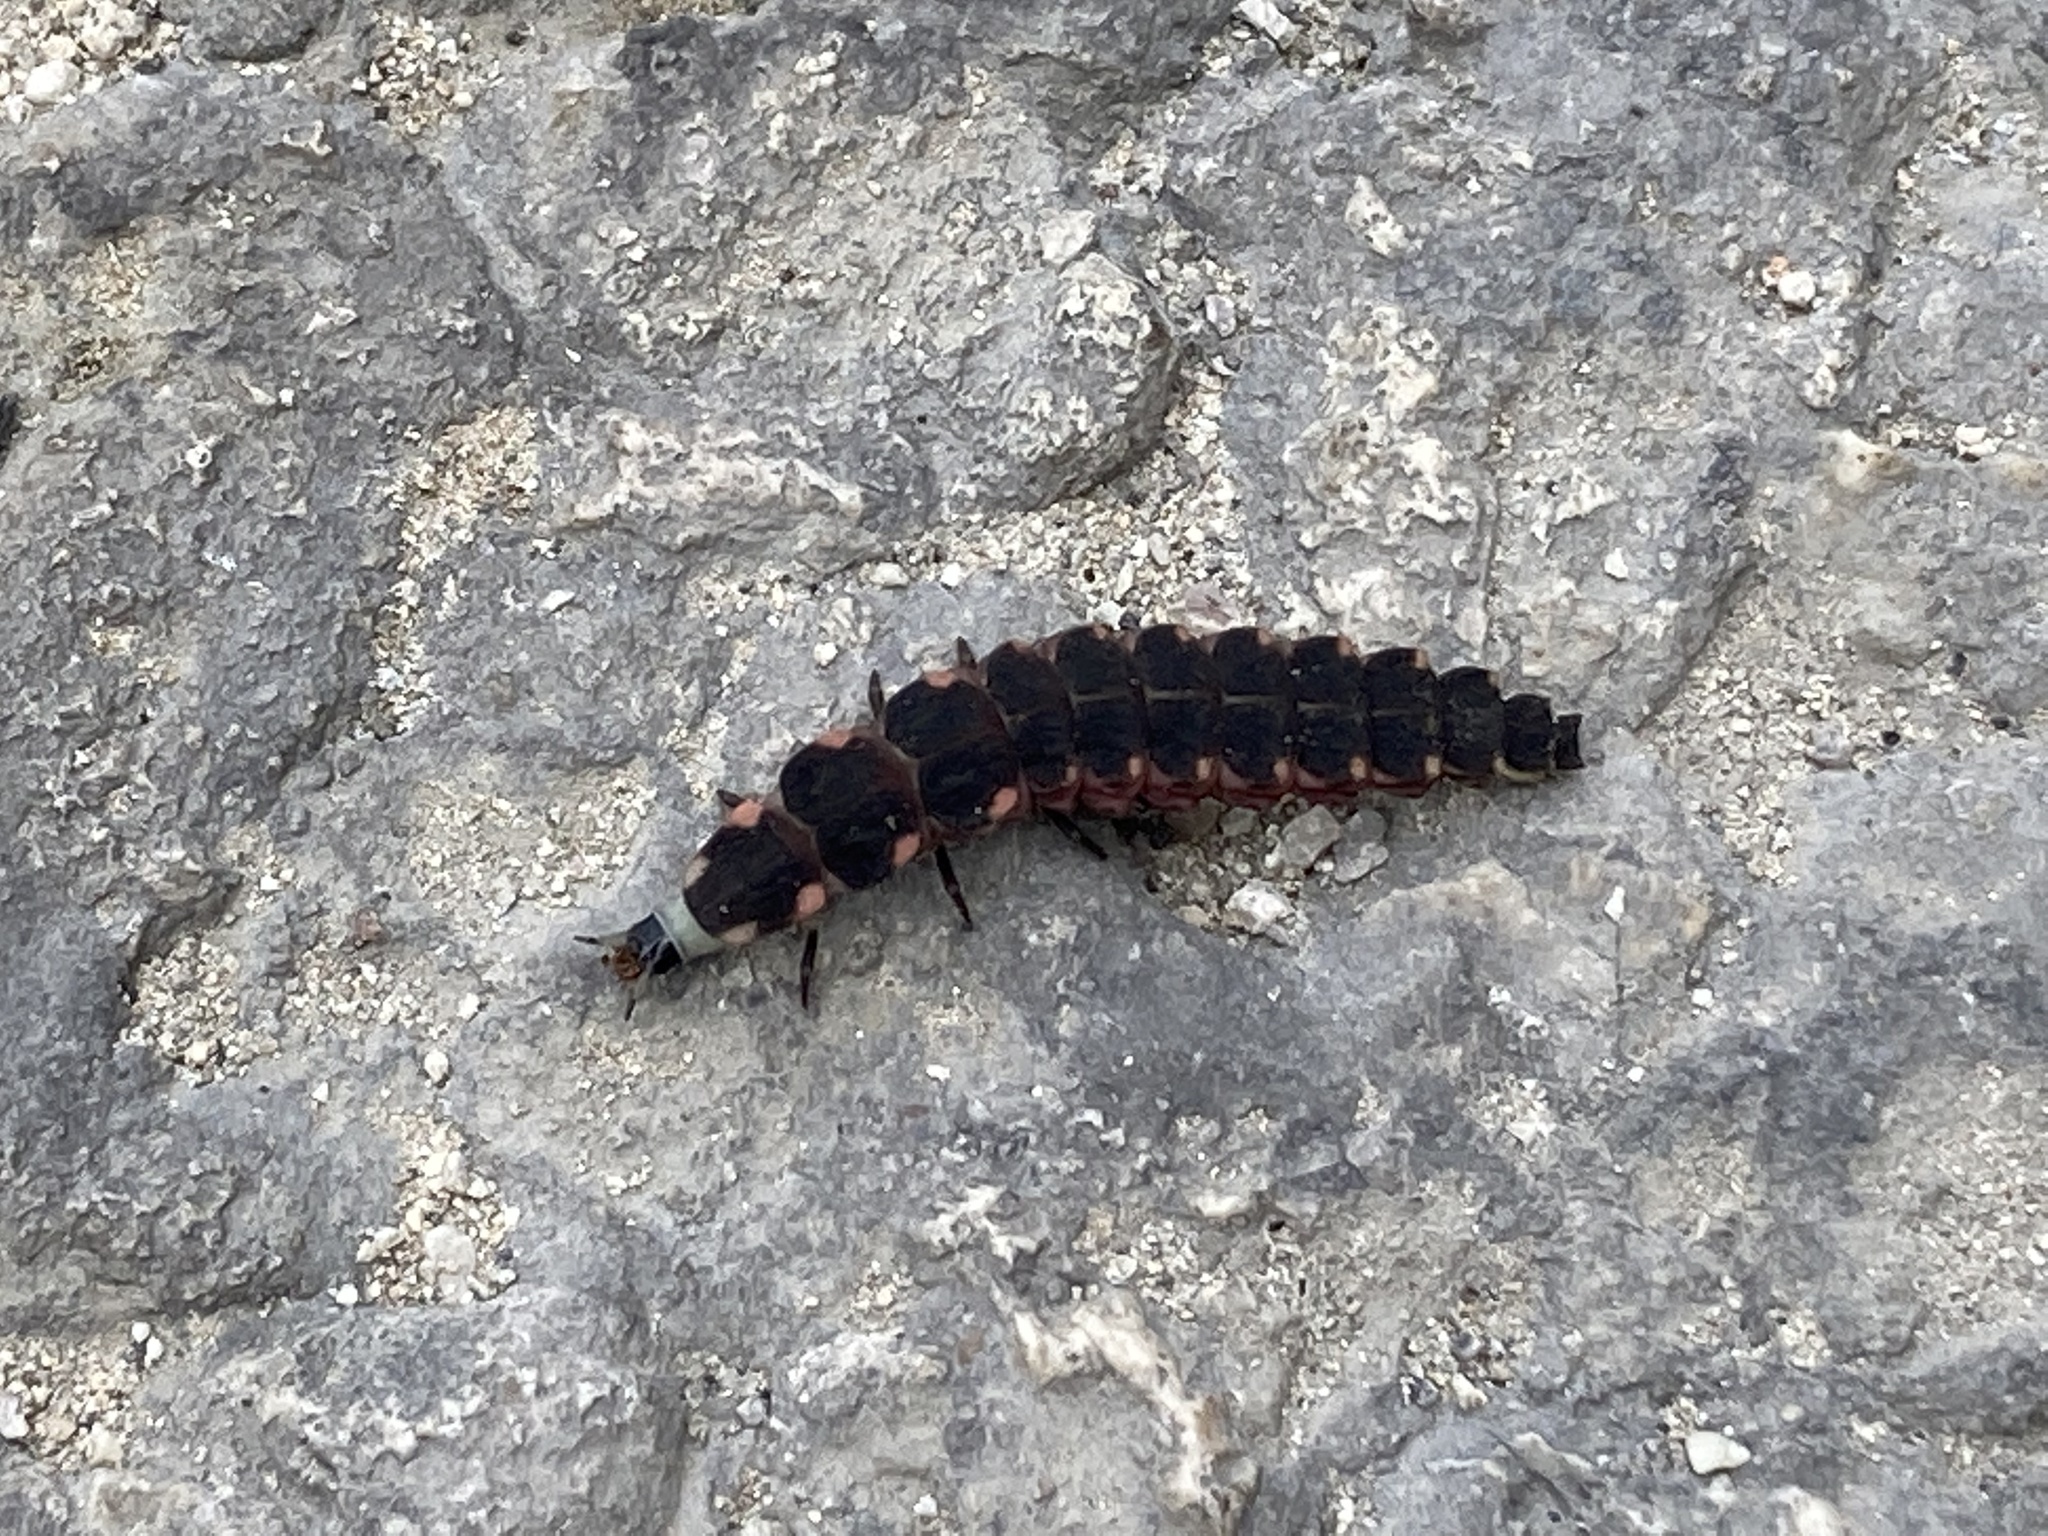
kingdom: Animalia
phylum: Arthropoda
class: Insecta
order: Coleoptera
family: Lampyridae
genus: Lampyris
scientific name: Lampyris pallida
